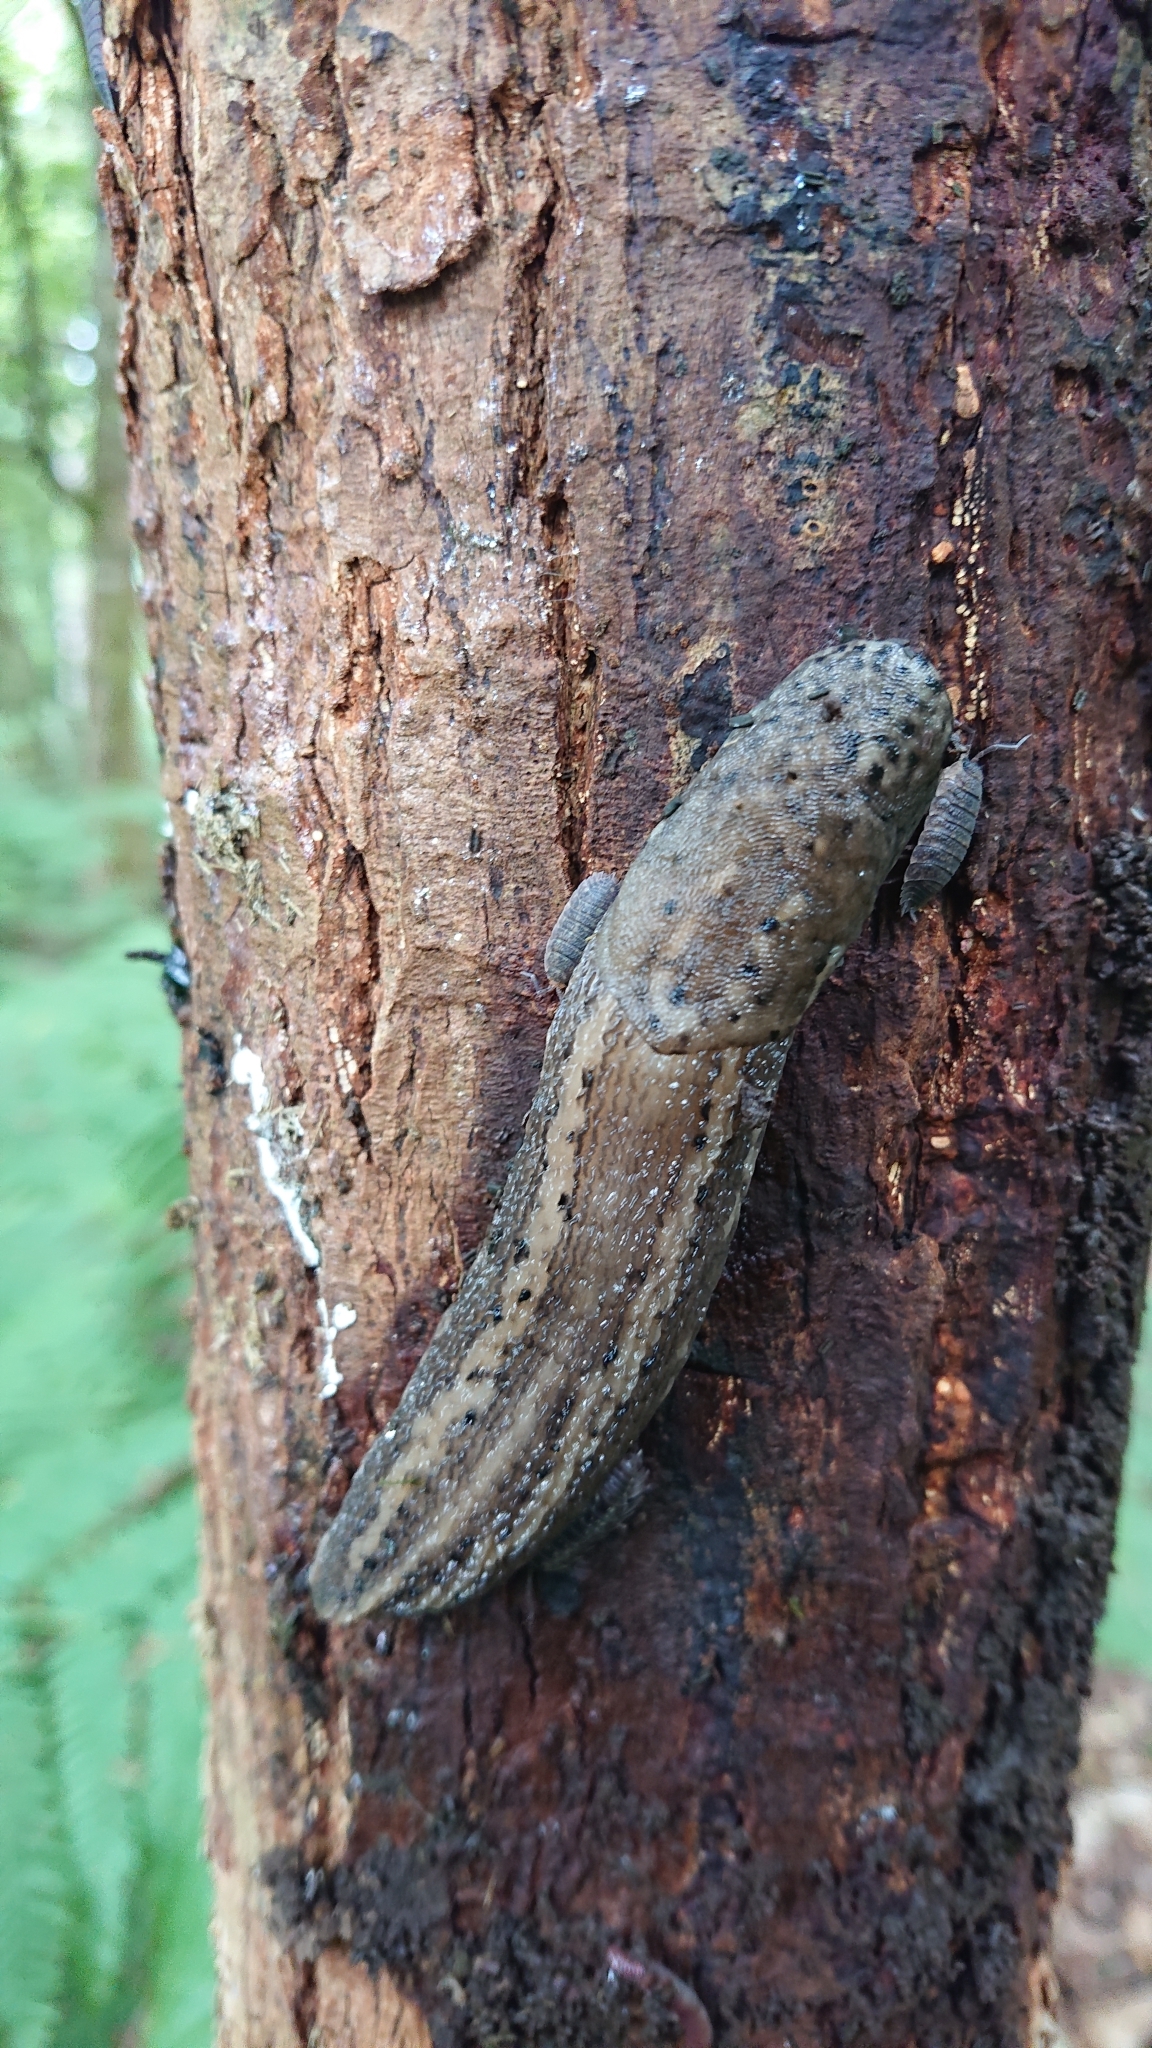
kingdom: Animalia
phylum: Mollusca
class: Gastropoda
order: Stylommatophora
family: Limacidae
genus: Limax
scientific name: Limax maximus
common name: Great grey slug
